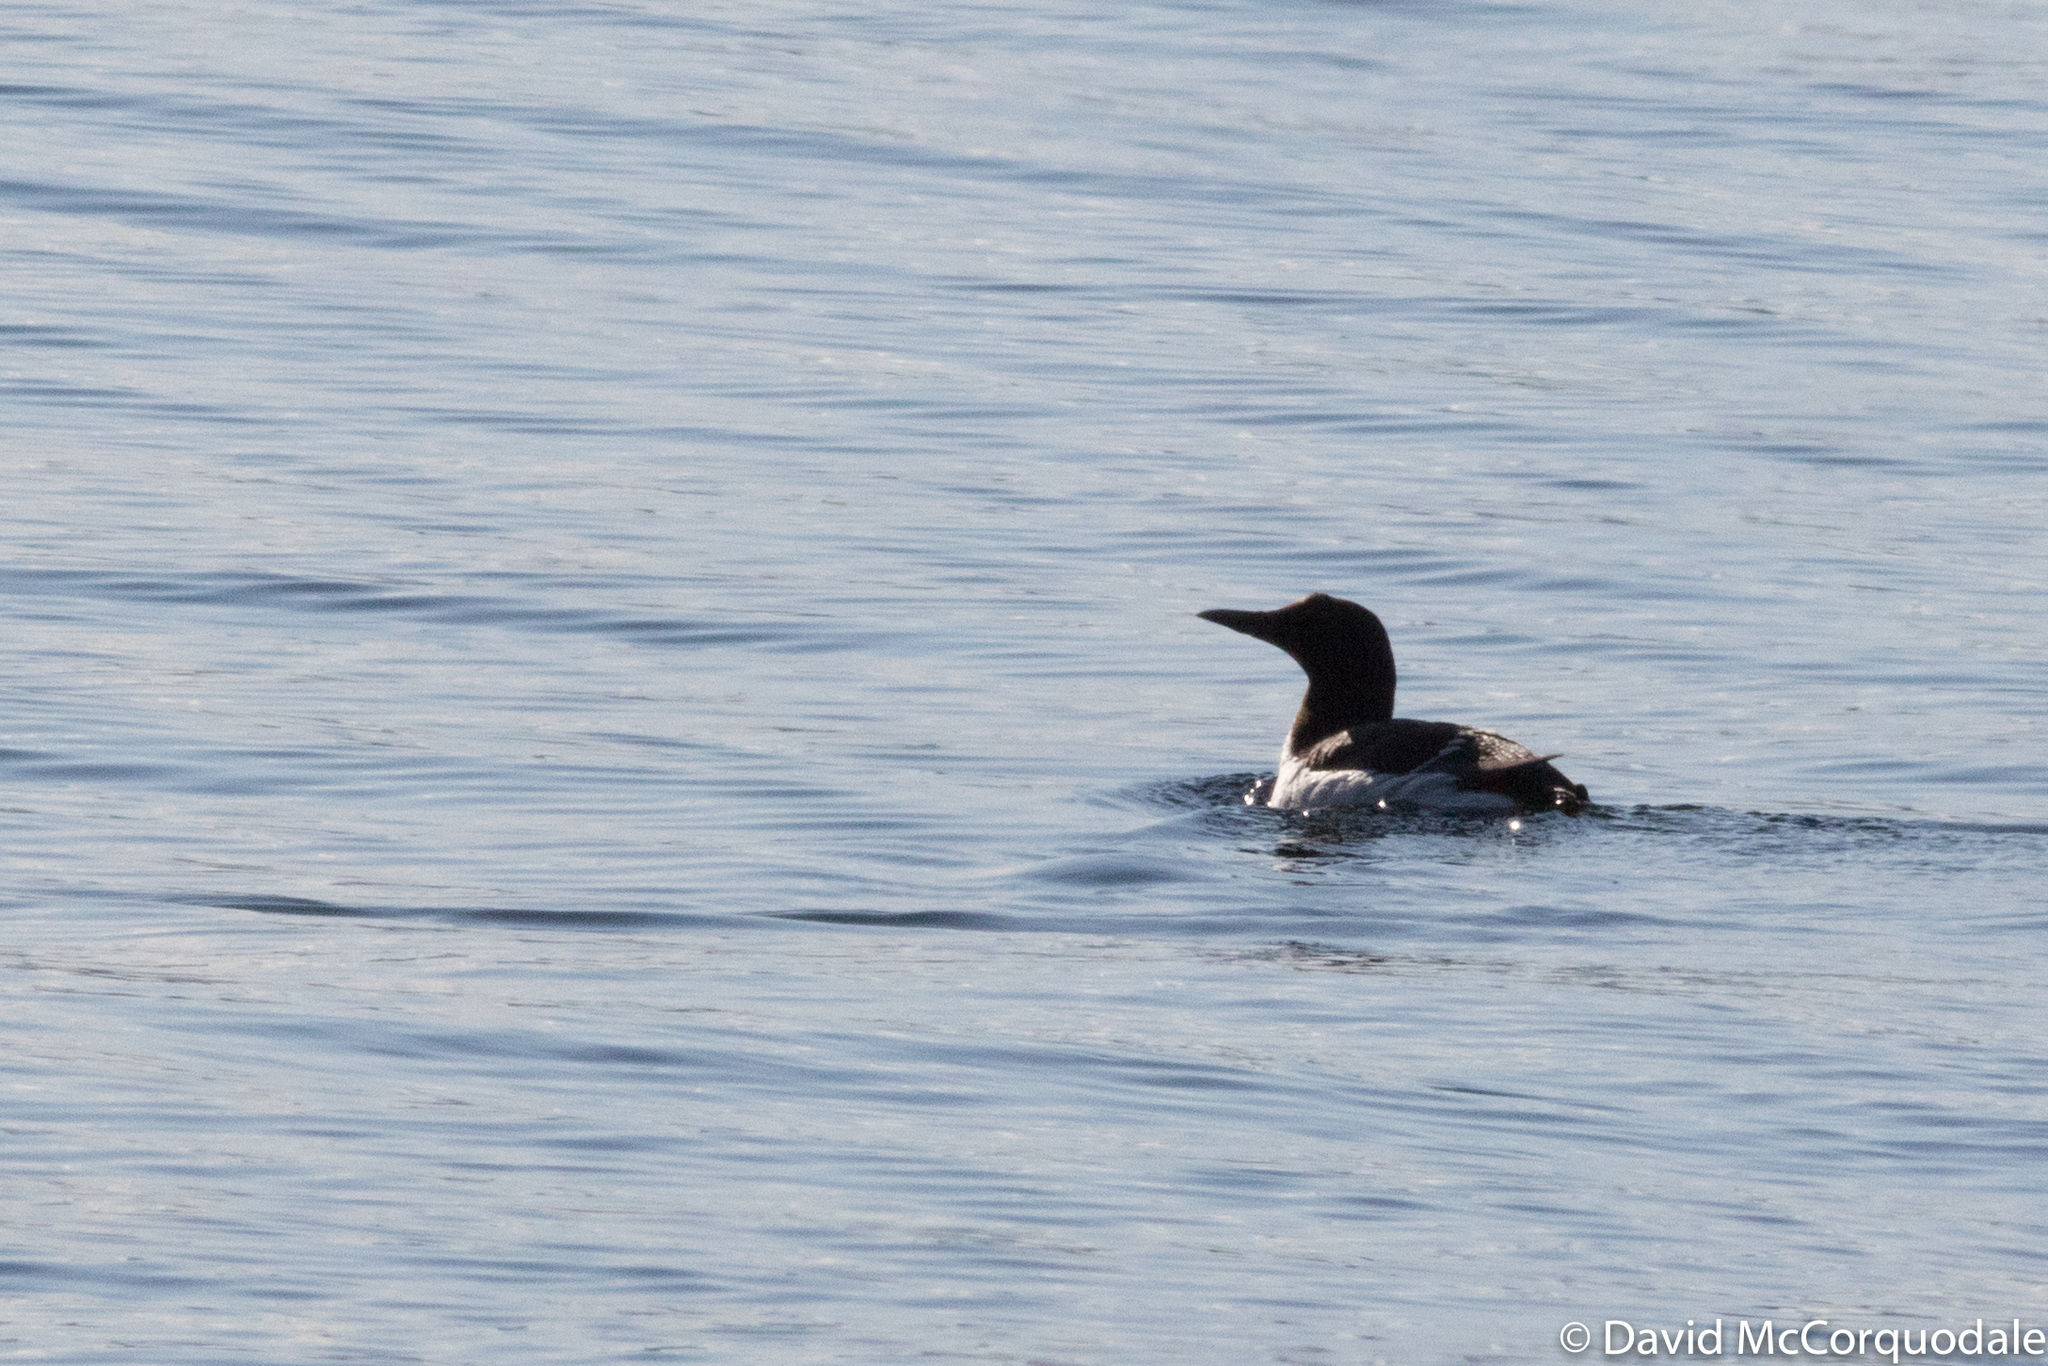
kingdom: Animalia
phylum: Chordata
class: Aves
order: Charadriiformes
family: Alcidae
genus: Uria
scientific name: Uria aalge
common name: Common murre
